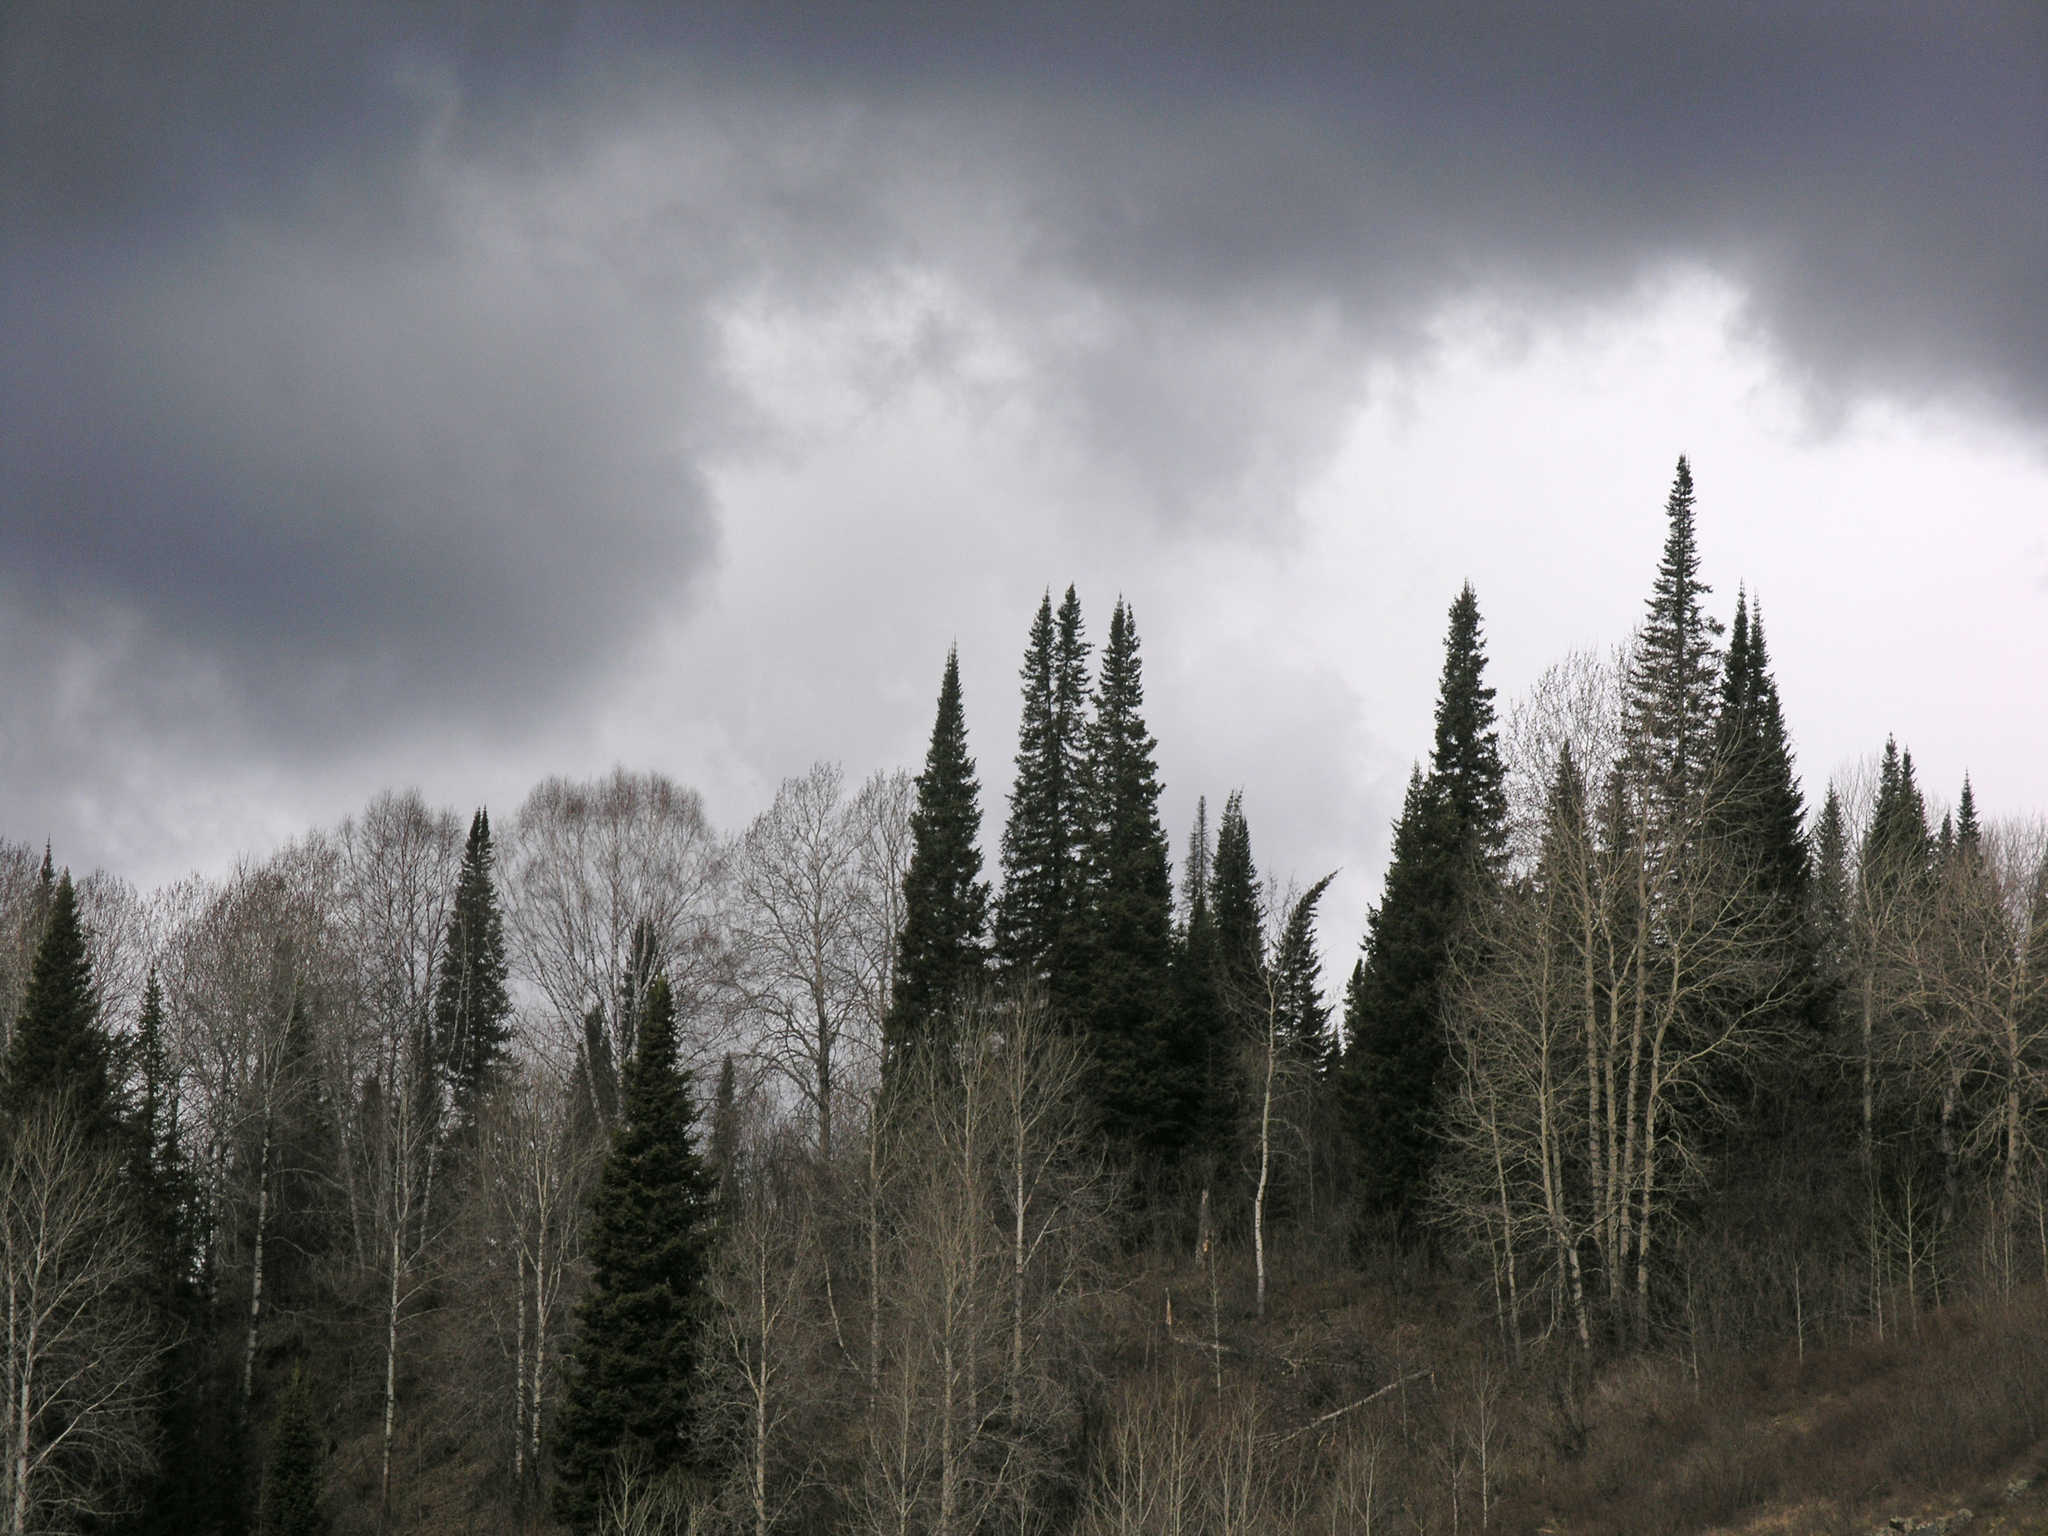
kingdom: Plantae
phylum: Tracheophyta
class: Magnoliopsida
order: Fagales
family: Betulaceae
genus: Betula
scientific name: Betula pendula
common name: Silver birch
